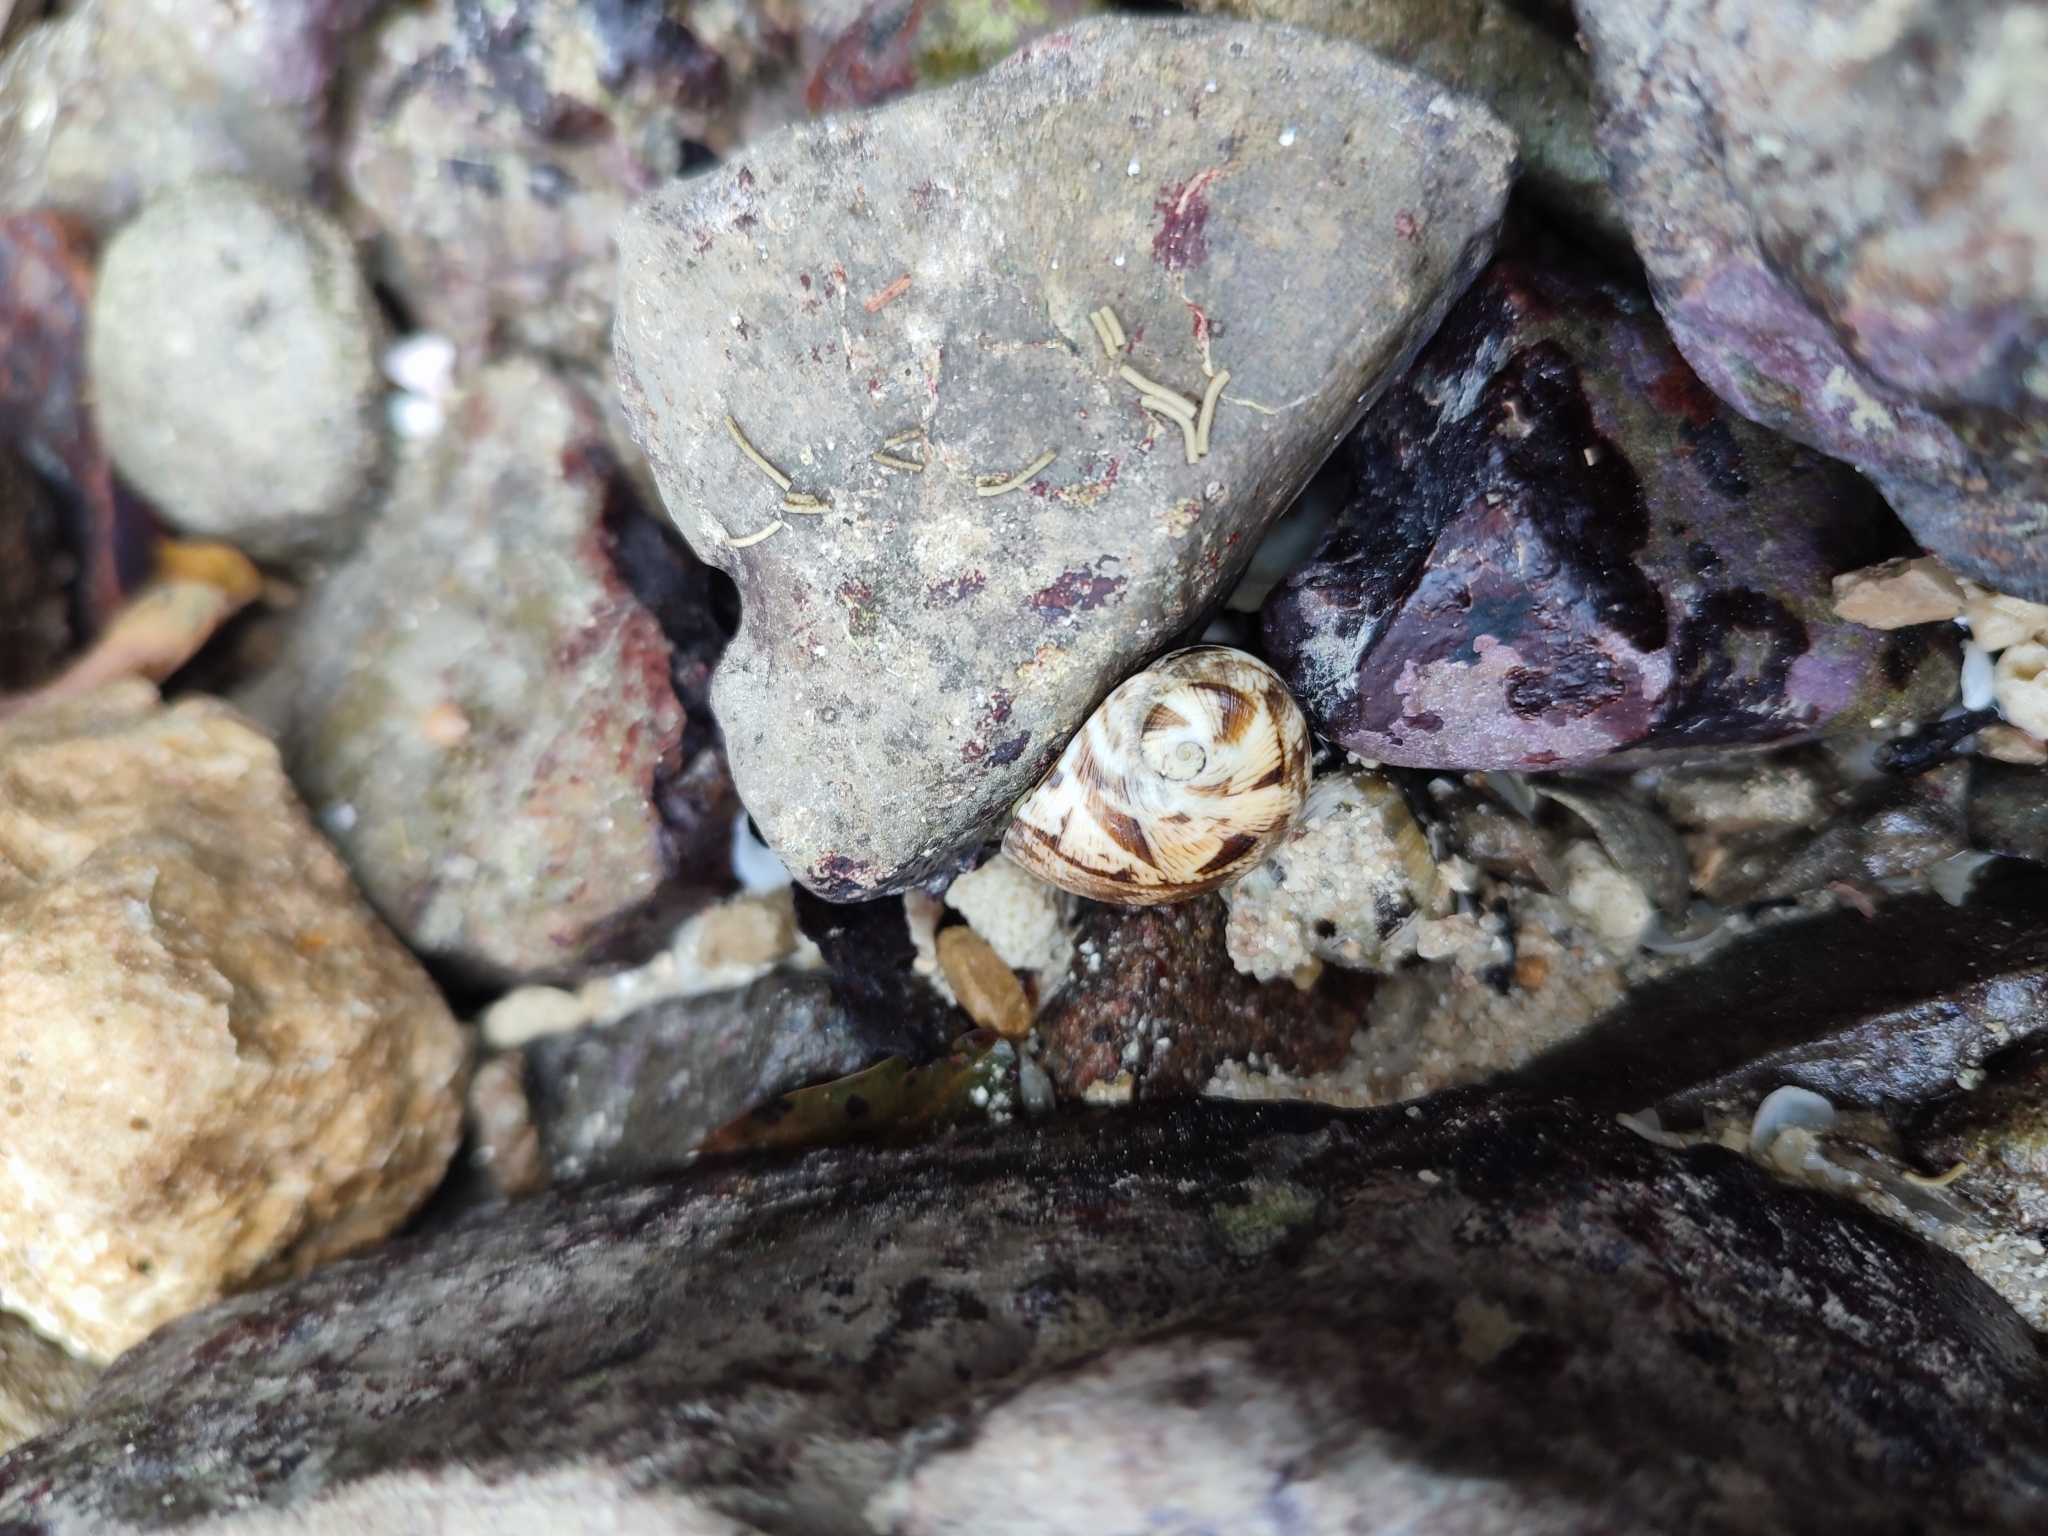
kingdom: Animalia
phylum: Mollusca
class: Gastropoda
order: Cycloneritida
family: Neritidae
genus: Nerita
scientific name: Nerita polita
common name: Polished nerite
